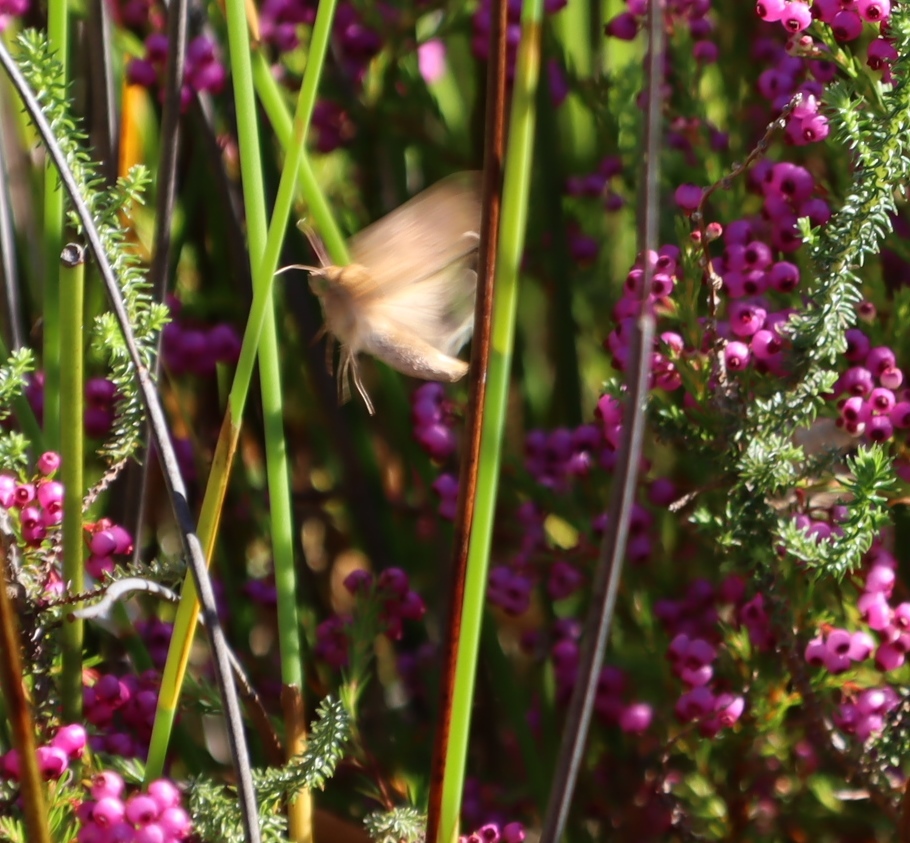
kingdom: Animalia
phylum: Arthropoda
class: Insecta
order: Lepidoptera
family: Noctuidae
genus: Helicoverpa
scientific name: Helicoverpa armigera
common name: Cotton bollworm
